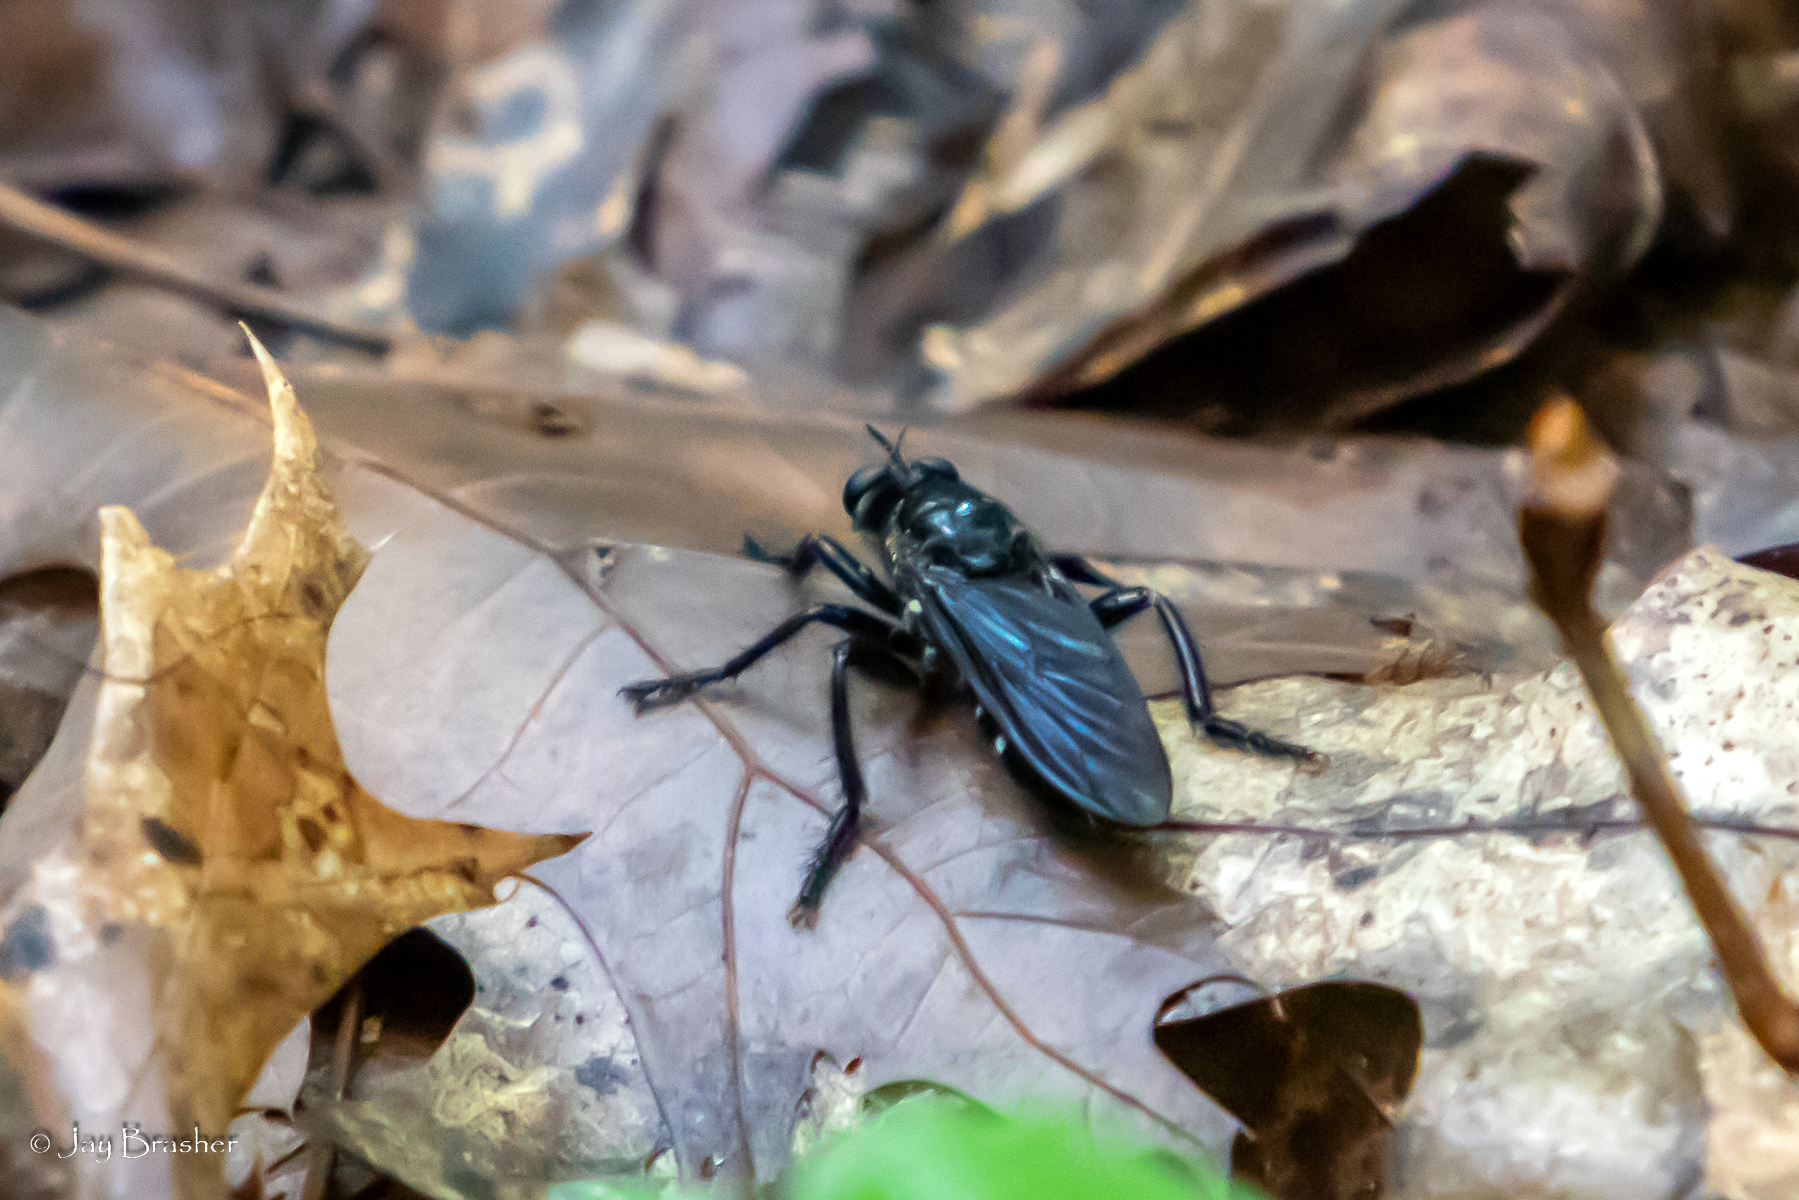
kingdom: Animalia
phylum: Arthropoda
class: Insecta
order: Diptera
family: Asilidae
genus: Orthogonis
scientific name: Orthogonis stygia
